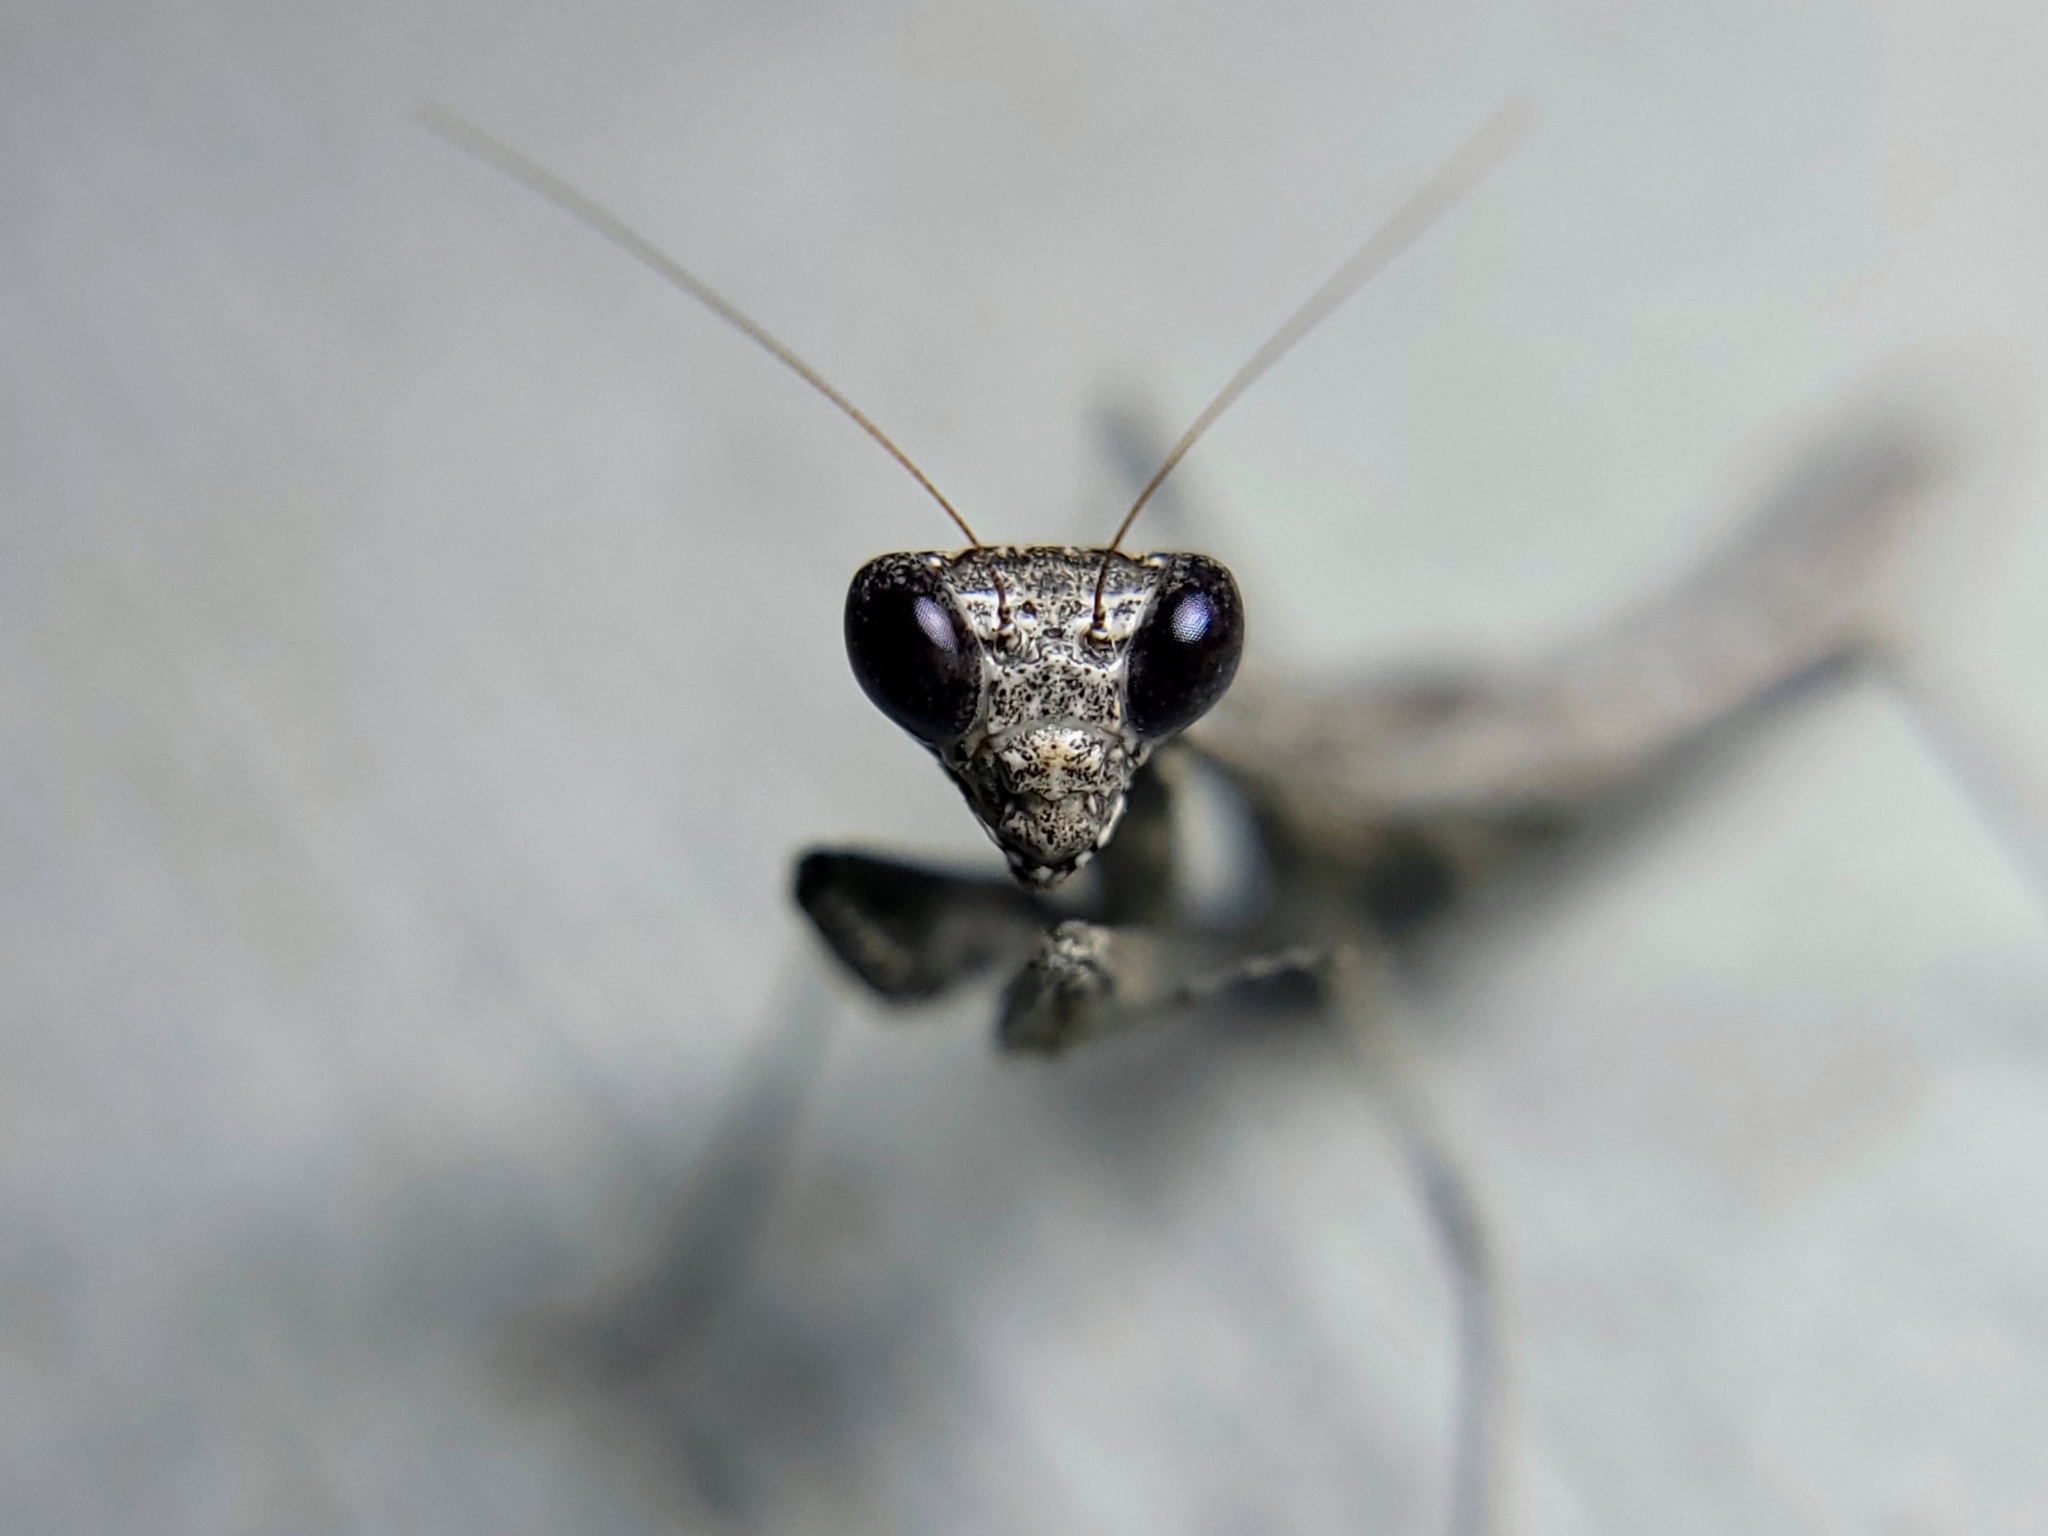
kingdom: Animalia
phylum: Arthropoda
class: Insecta
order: Mantodea
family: Amelidae
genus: Litaneutria
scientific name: Litaneutria pacifica
